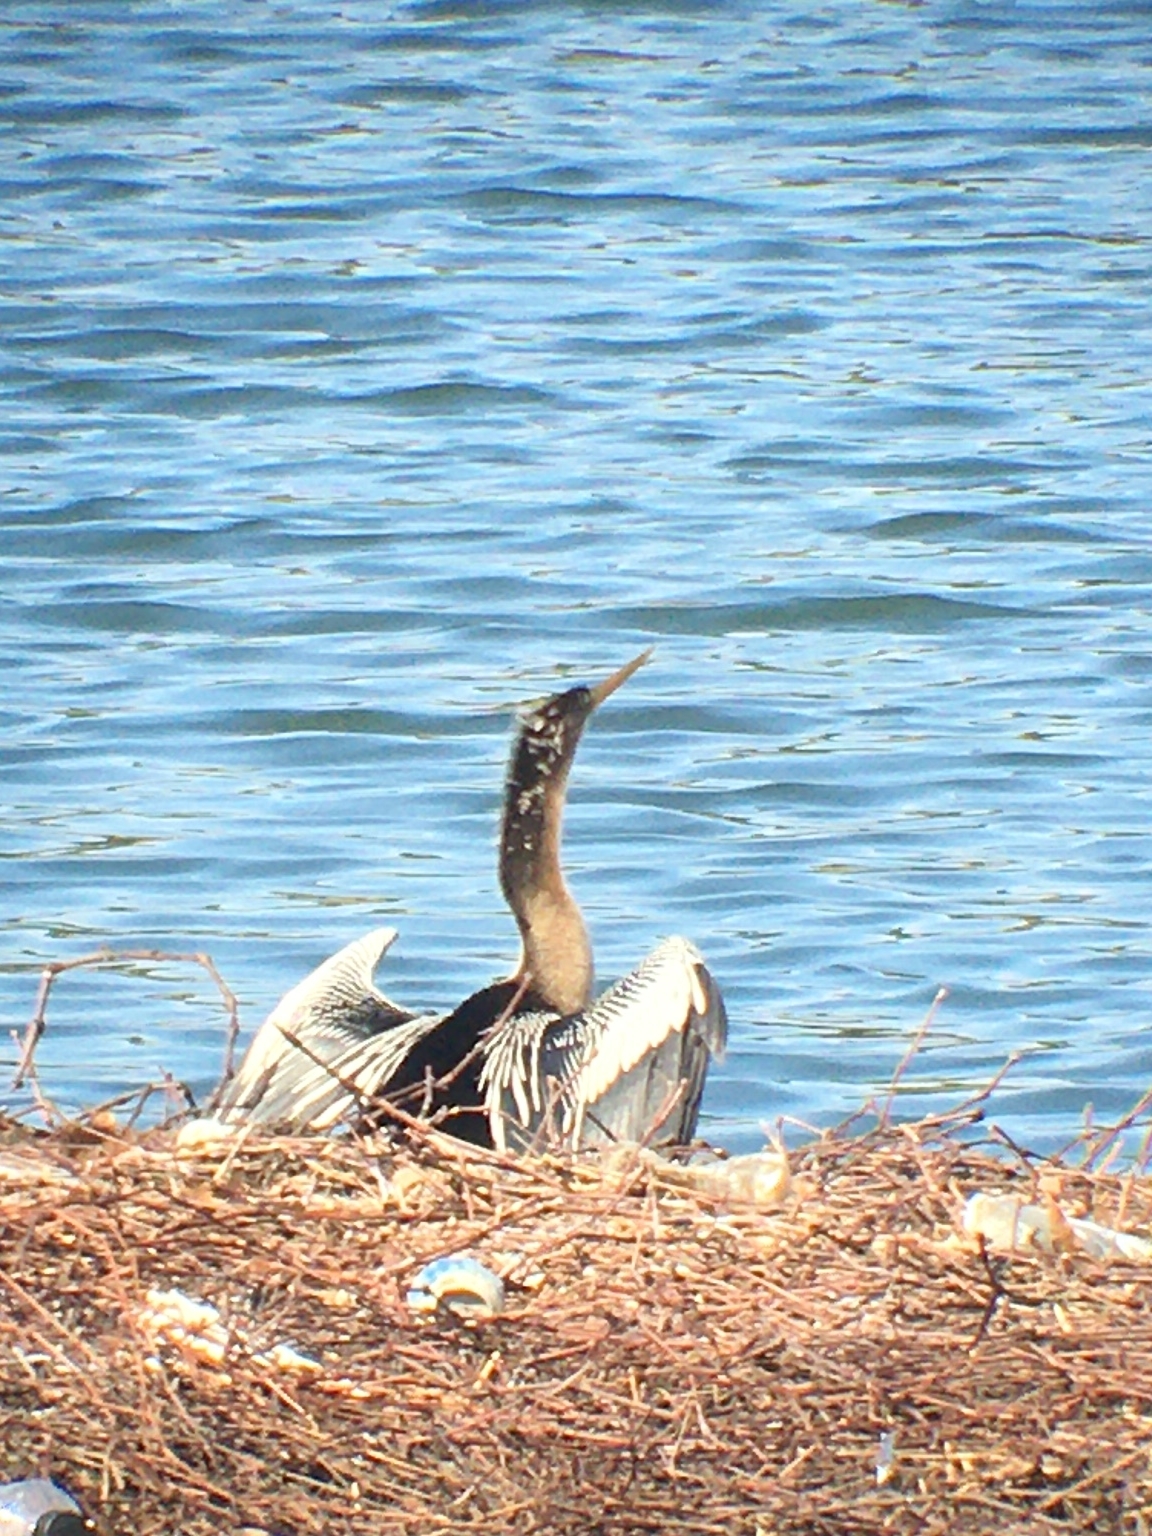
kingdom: Animalia
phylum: Chordata
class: Aves
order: Suliformes
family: Anhingidae
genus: Anhinga
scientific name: Anhinga anhinga
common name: Anhinga
